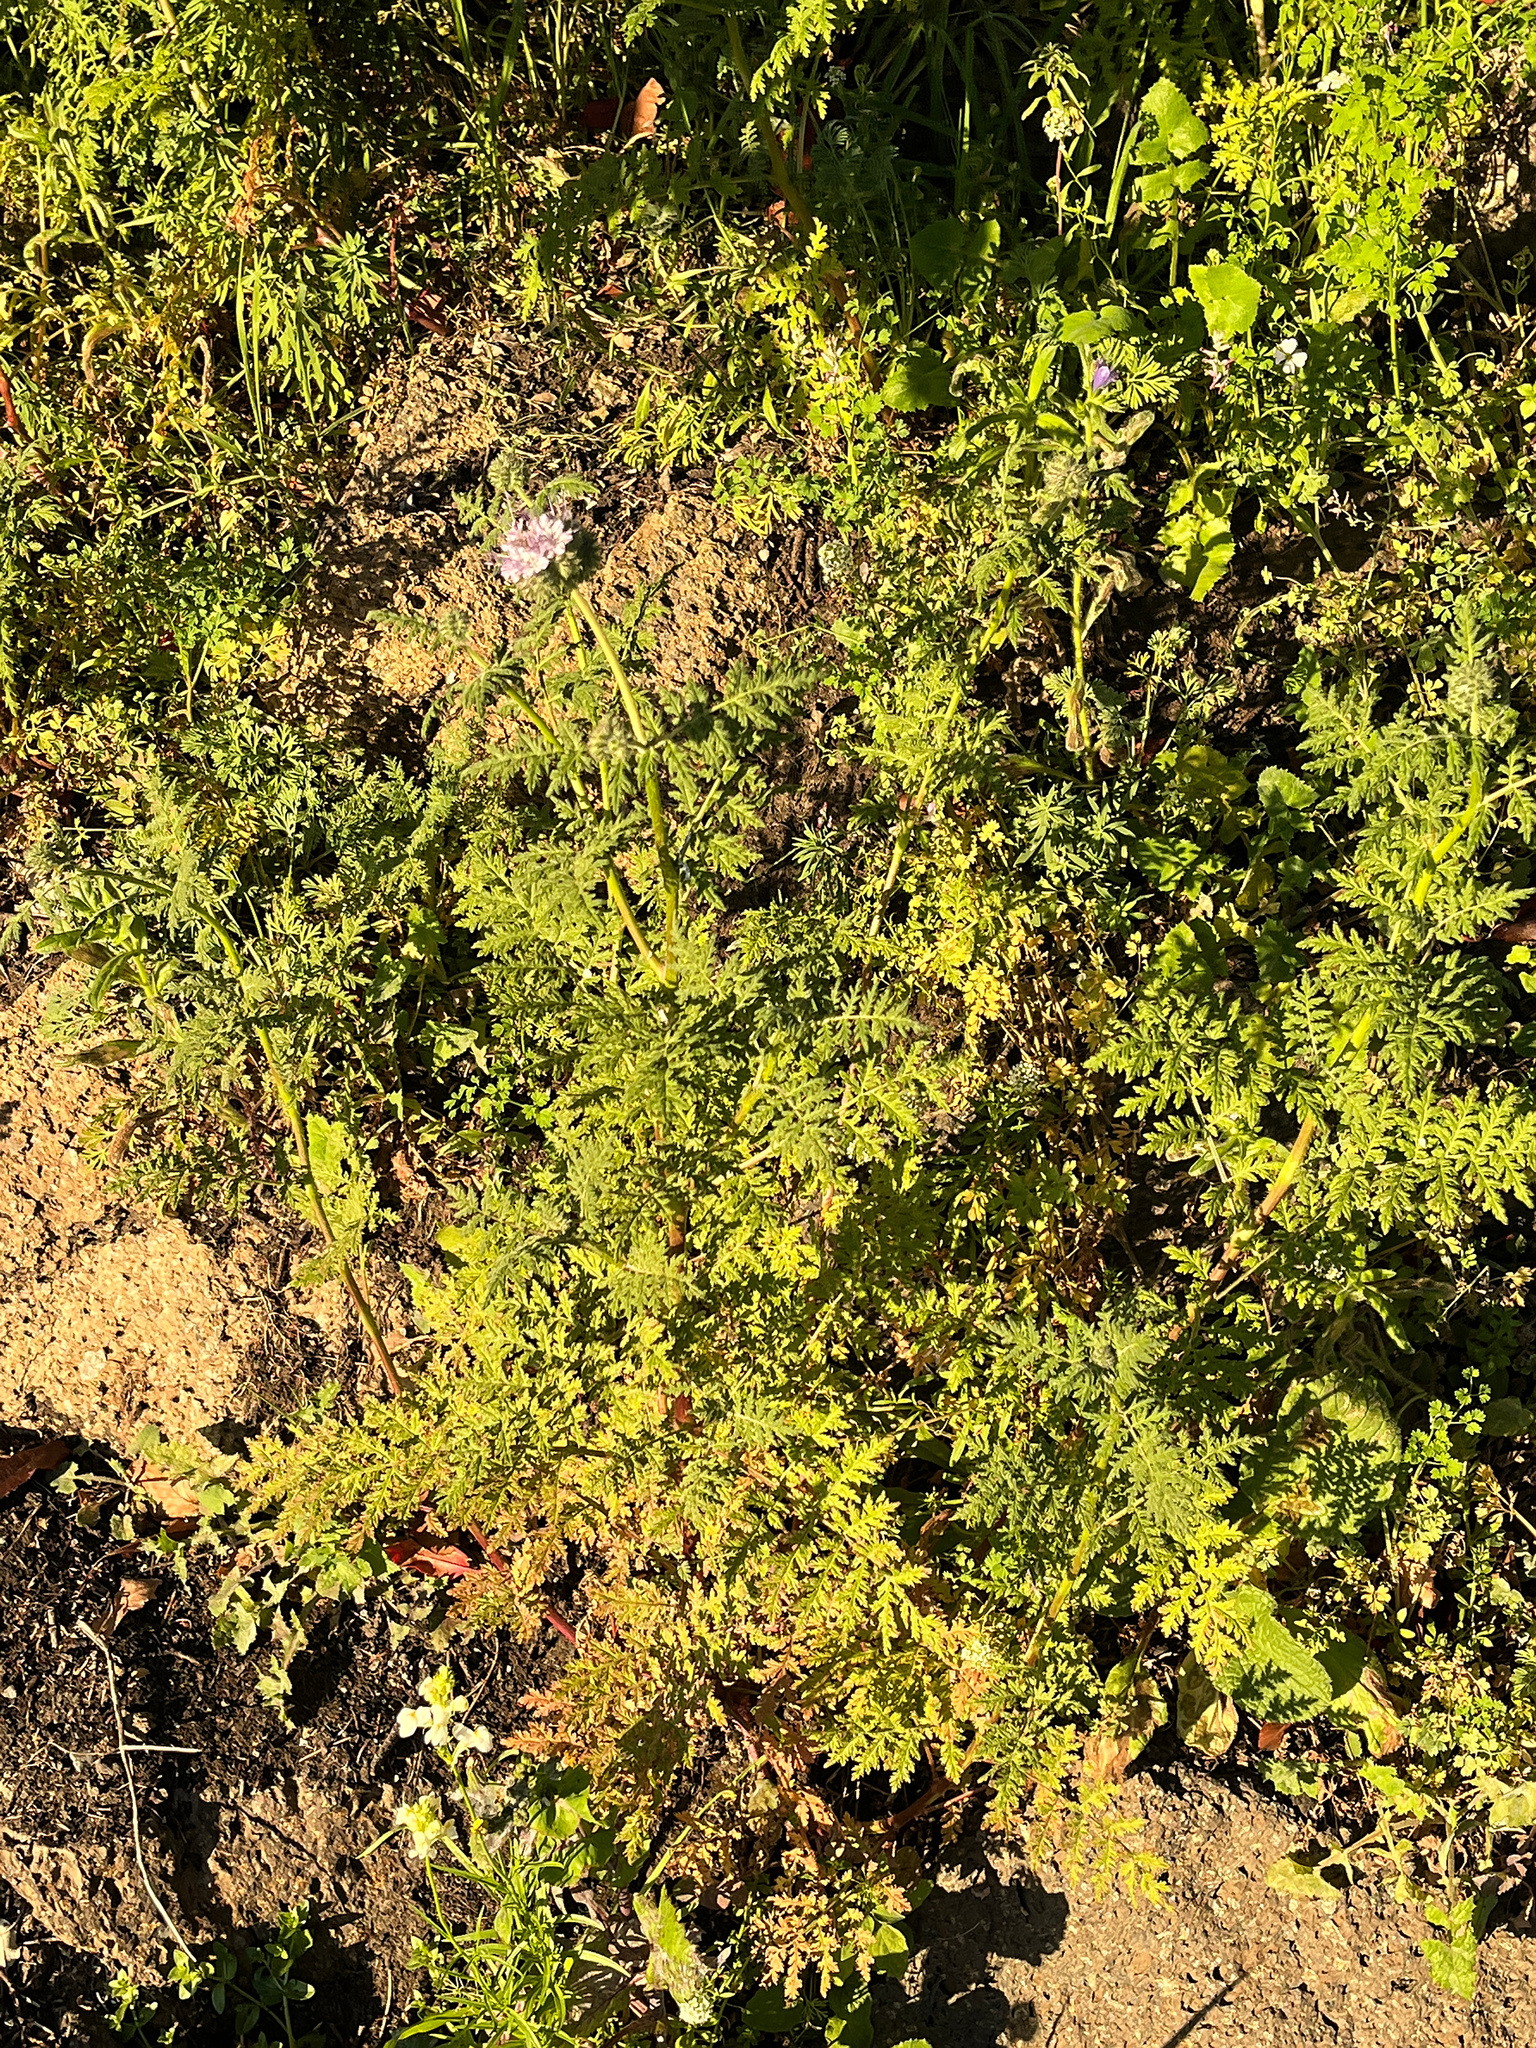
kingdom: Plantae
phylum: Tracheophyta
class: Magnoliopsida
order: Boraginales
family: Hydrophyllaceae
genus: Phacelia
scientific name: Phacelia tanacetifolia
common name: Phacelia
